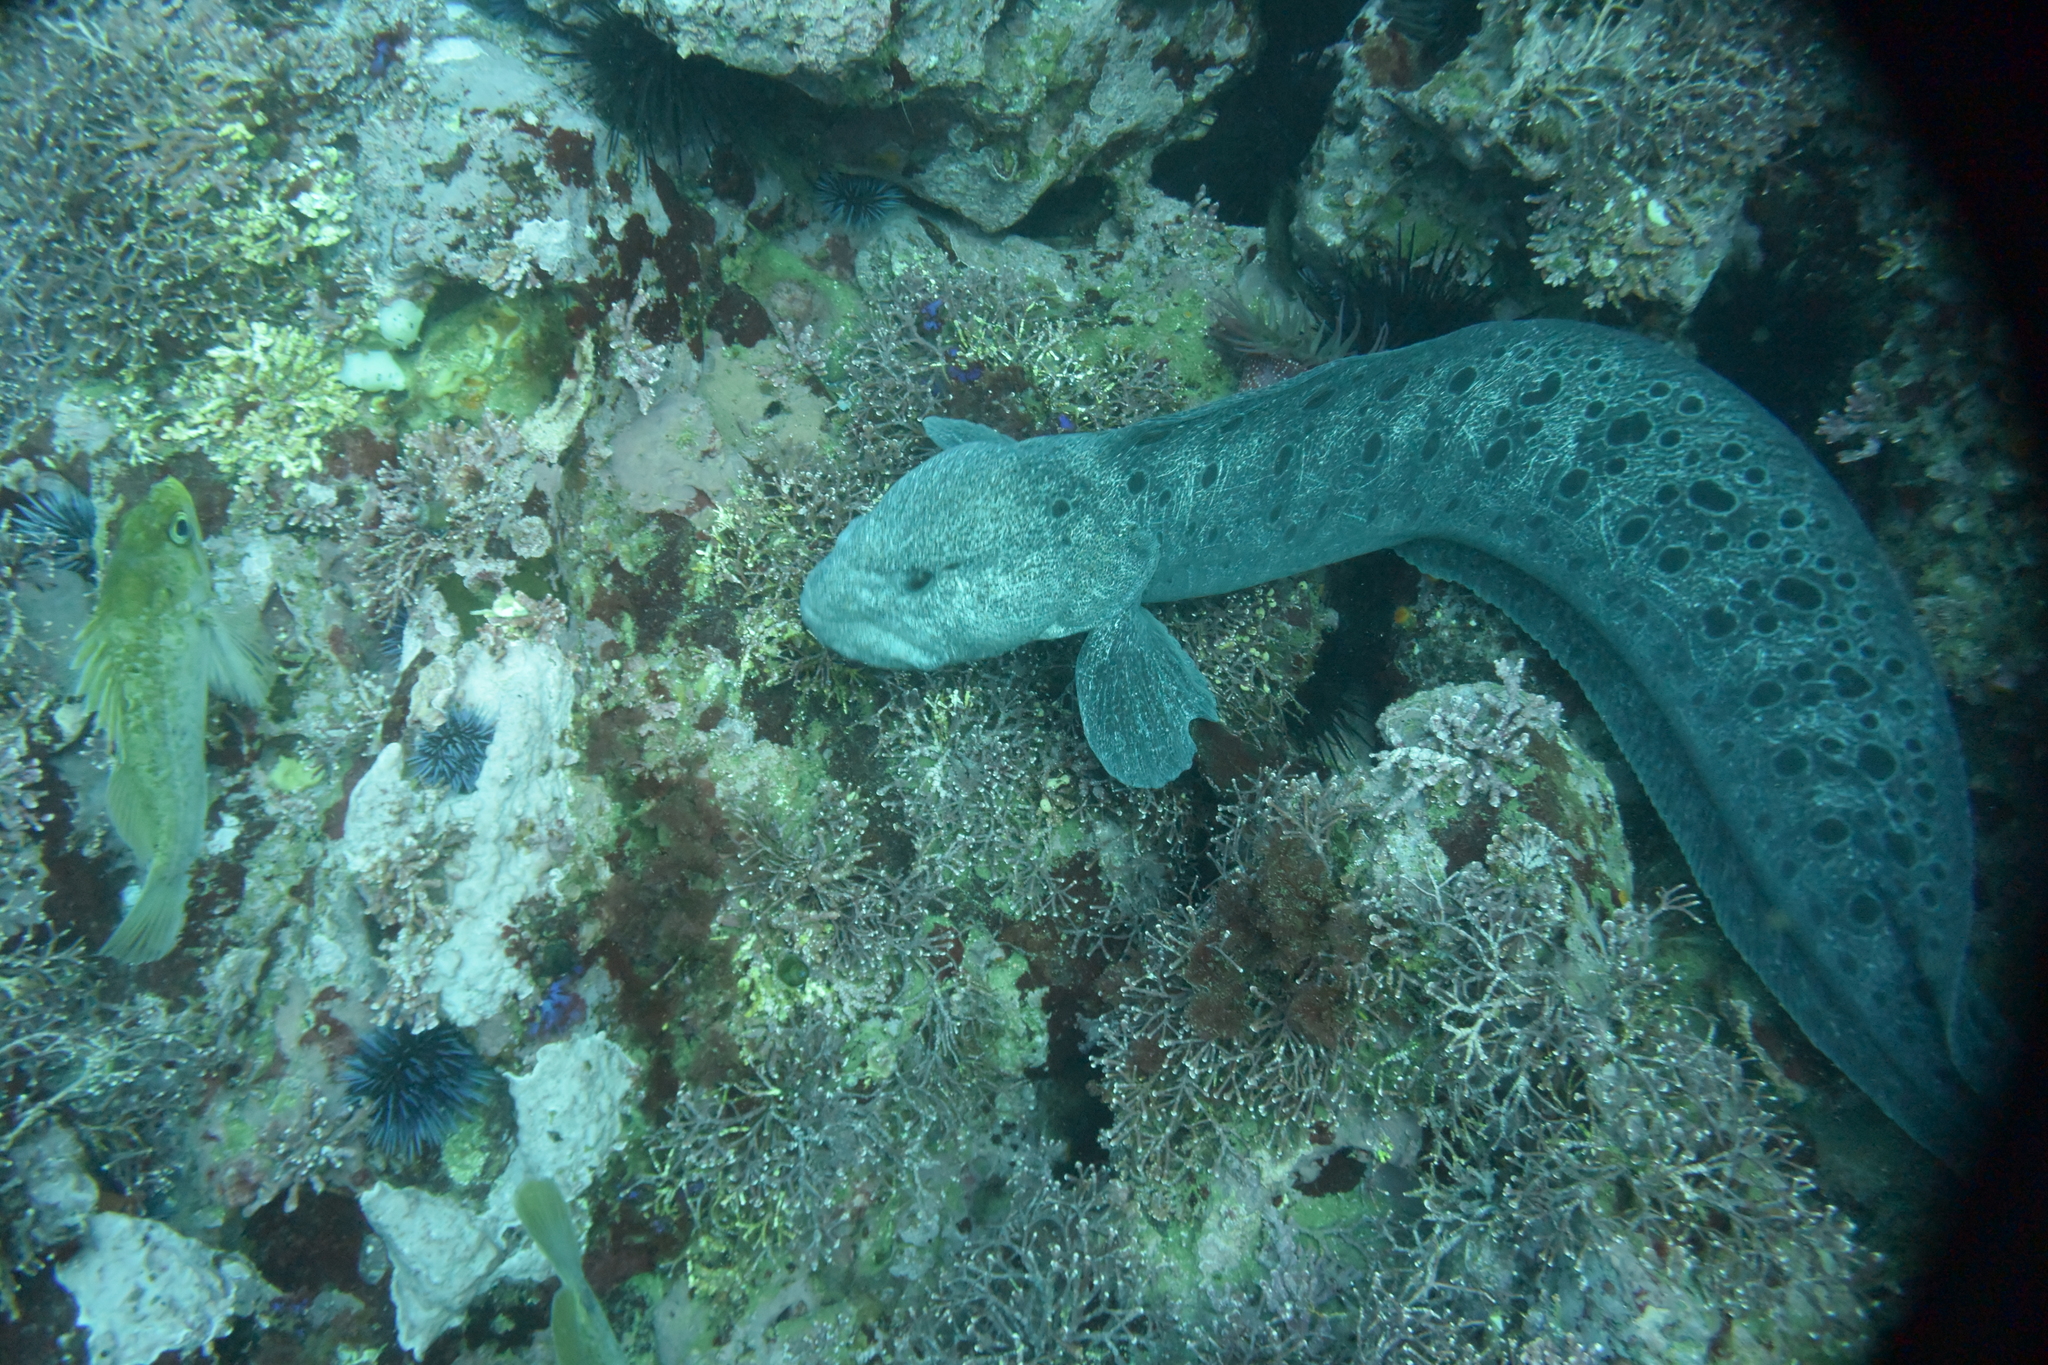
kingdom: Animalia
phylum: Chordata
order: Perciformes
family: Anarhichadidae
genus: Anarrhichthys
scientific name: Anarrhichthys ocellatus
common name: Wolf-eel
